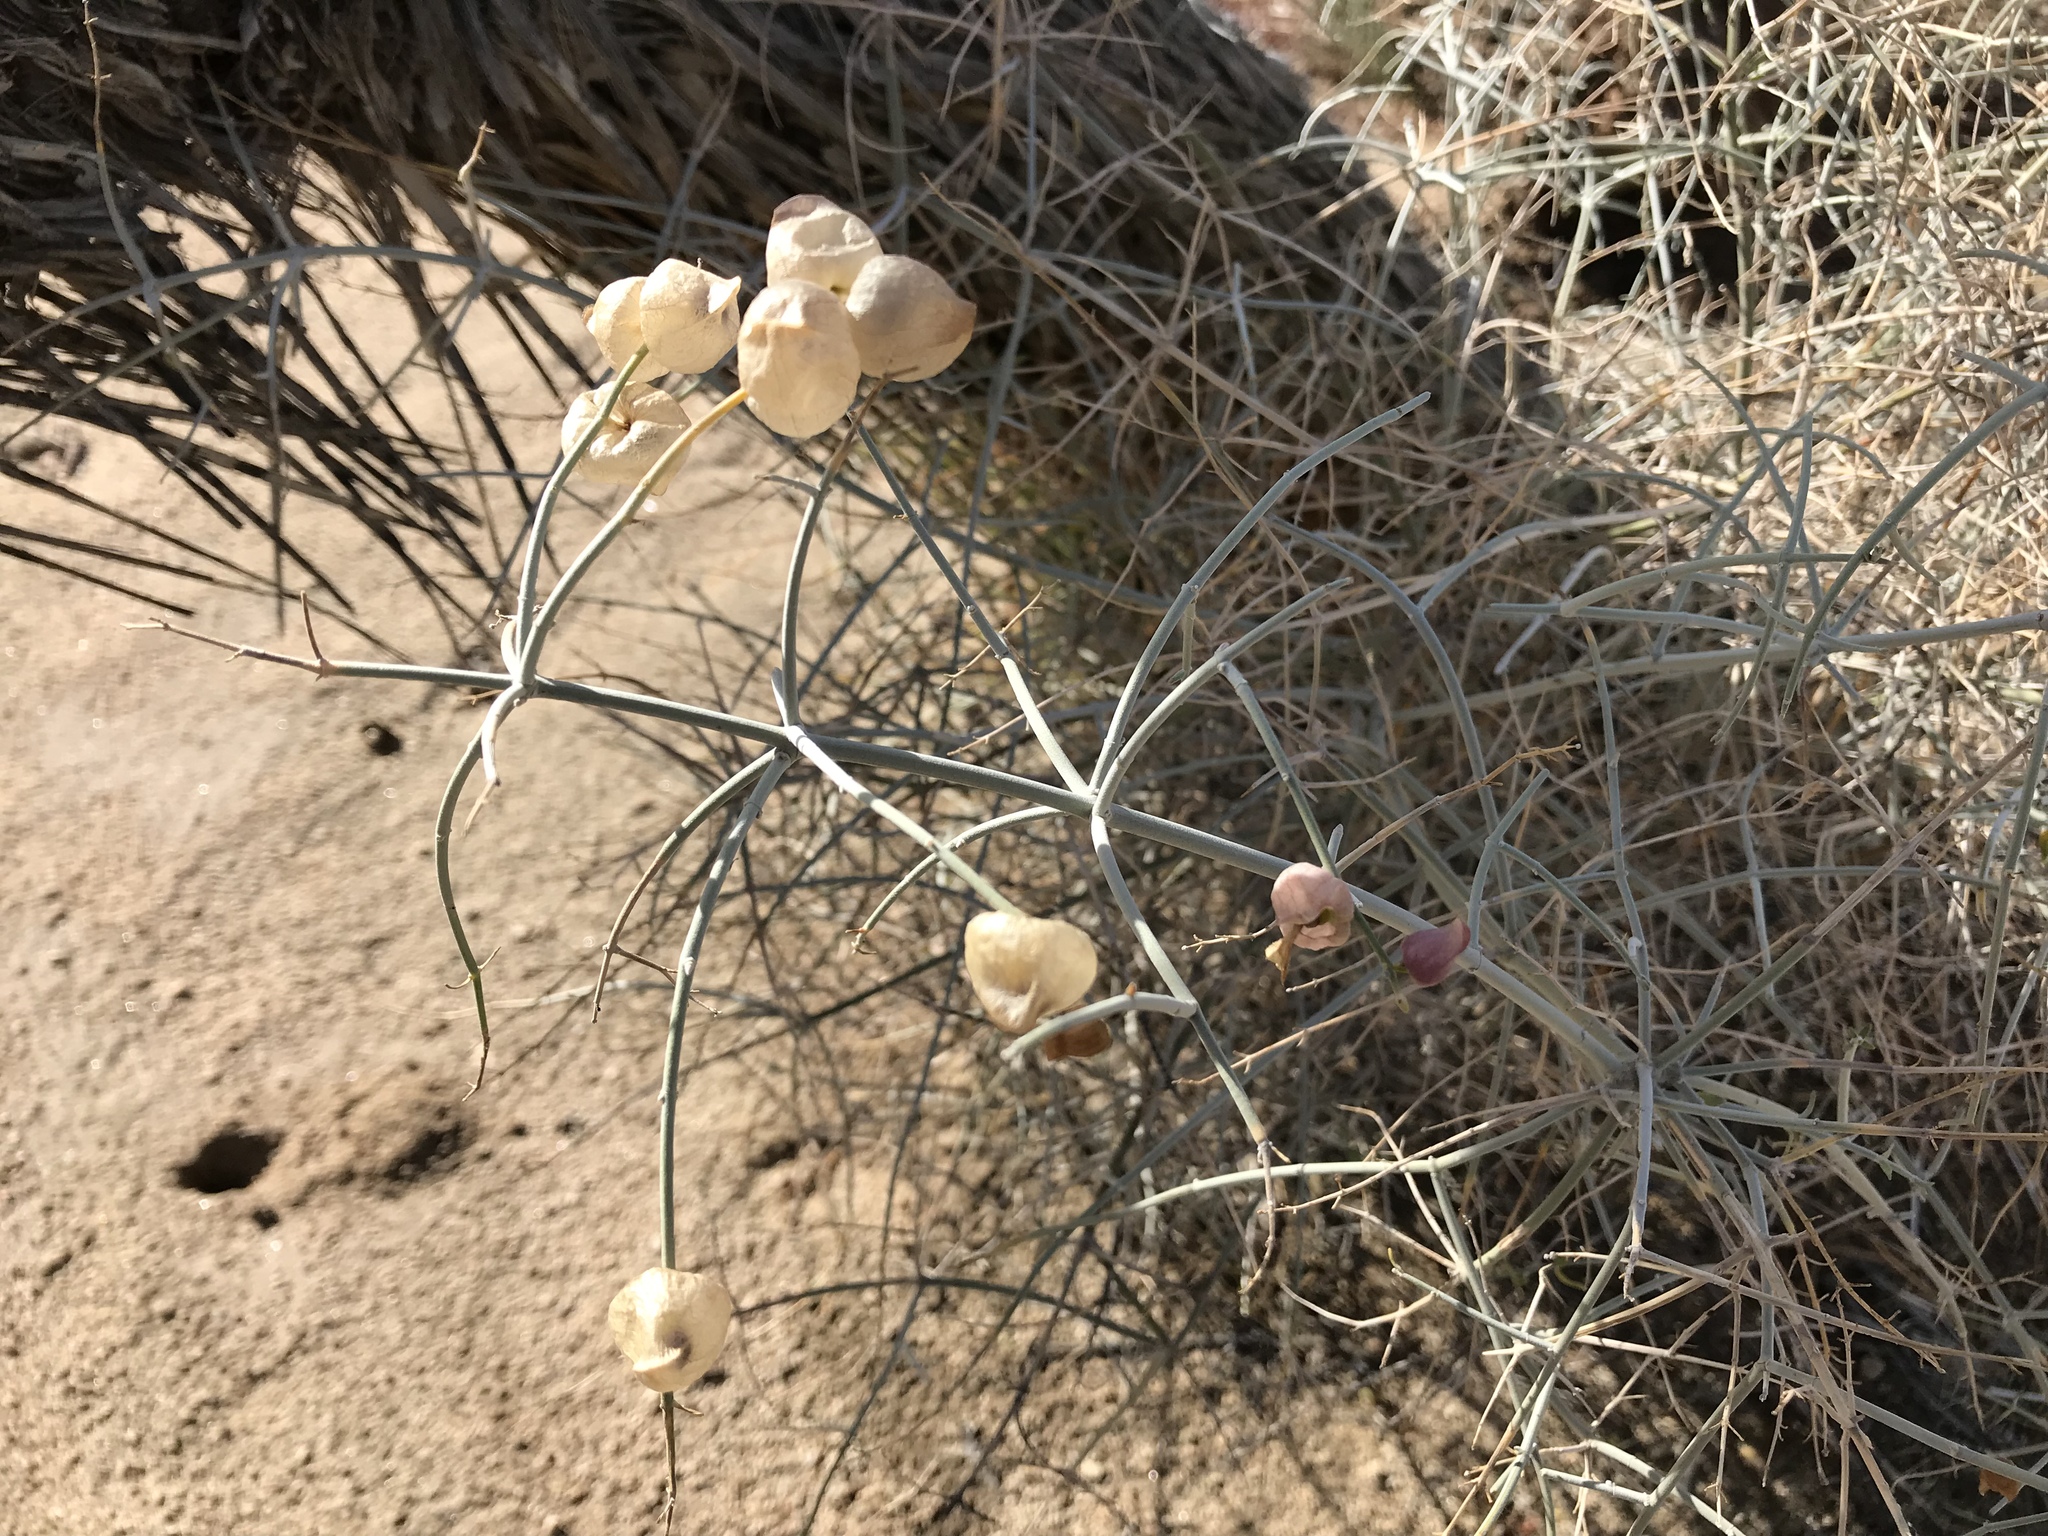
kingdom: Plantae
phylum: Tracheophyta
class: Magnoliopsida
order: Lamiales
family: Lamiaceae
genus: Scutellaria
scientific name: Scutellaria mexicana
